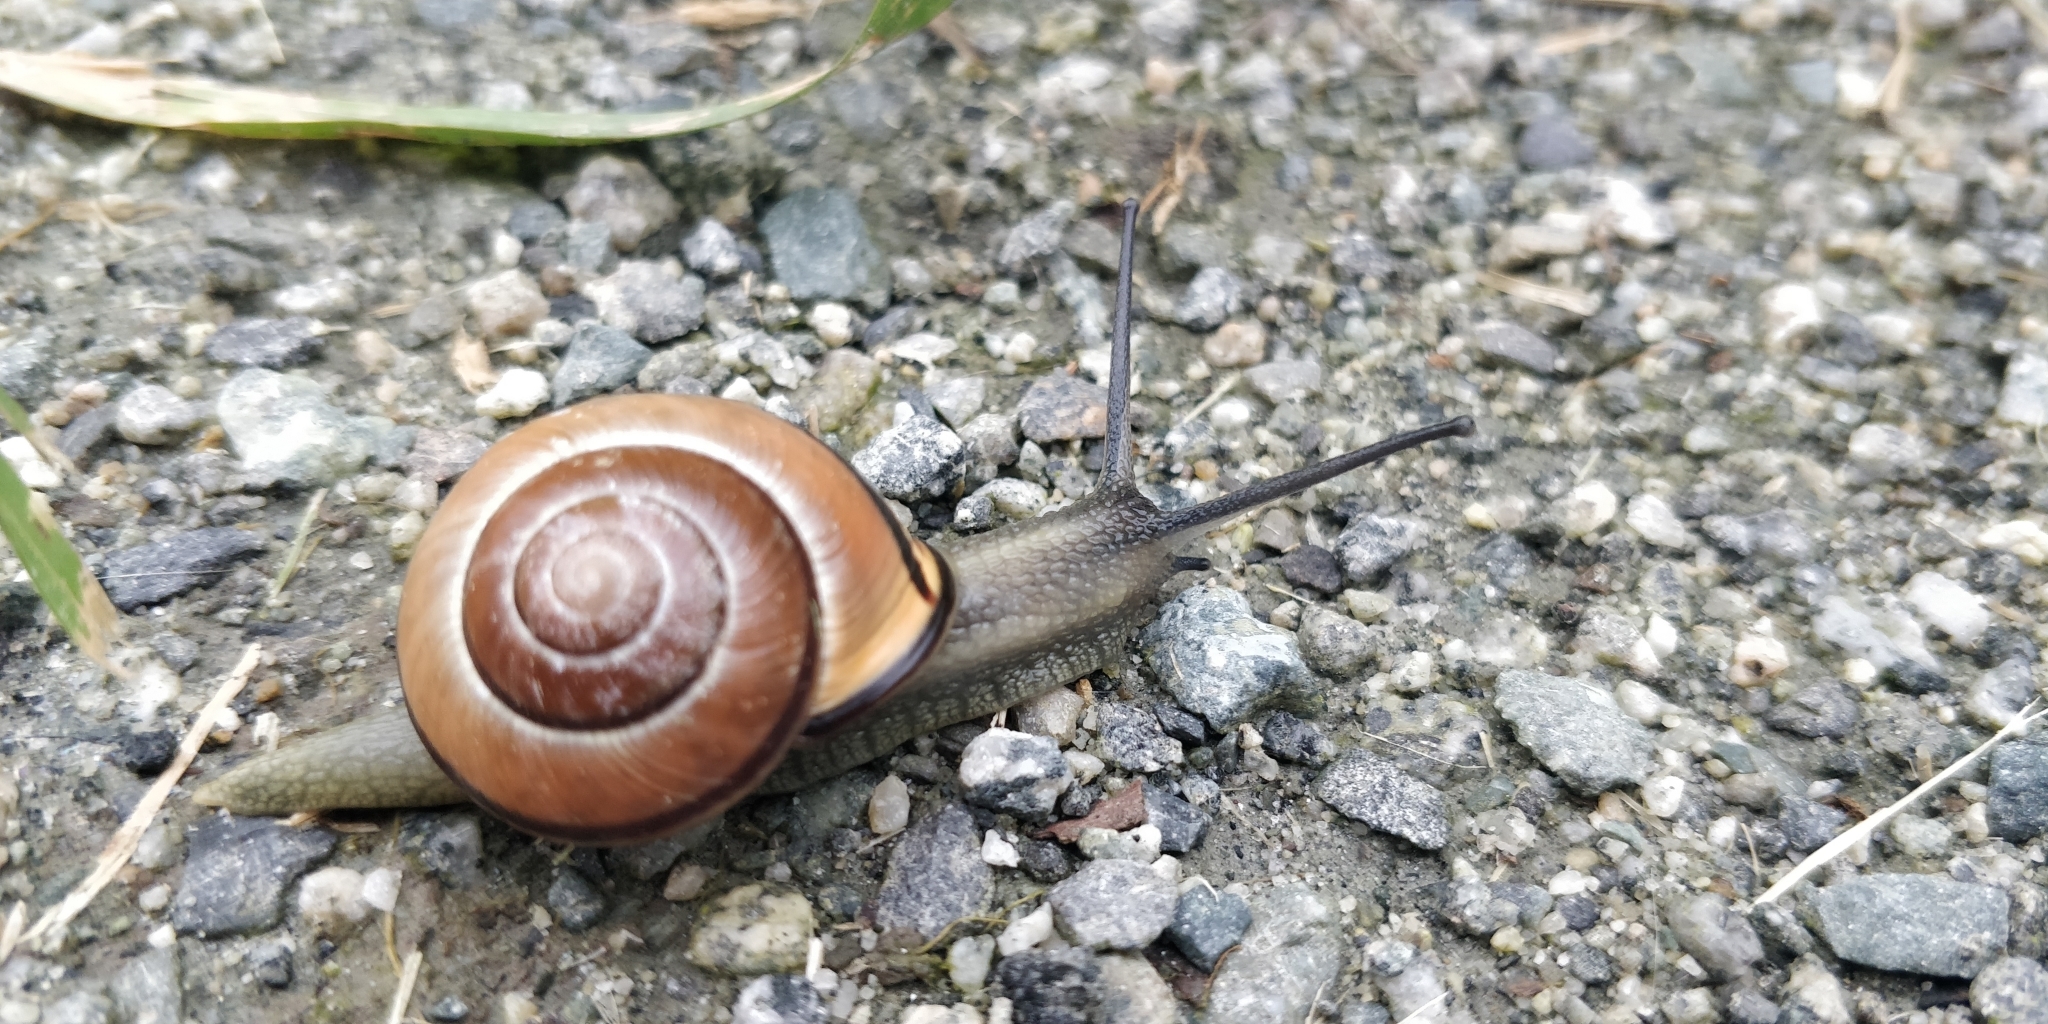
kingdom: Animalia
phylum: Mollusca
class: Gastropoda
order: Stylommatophora
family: Helicidae
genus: Cepaea
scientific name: Cepaea nemoralis
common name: Grovesnail
